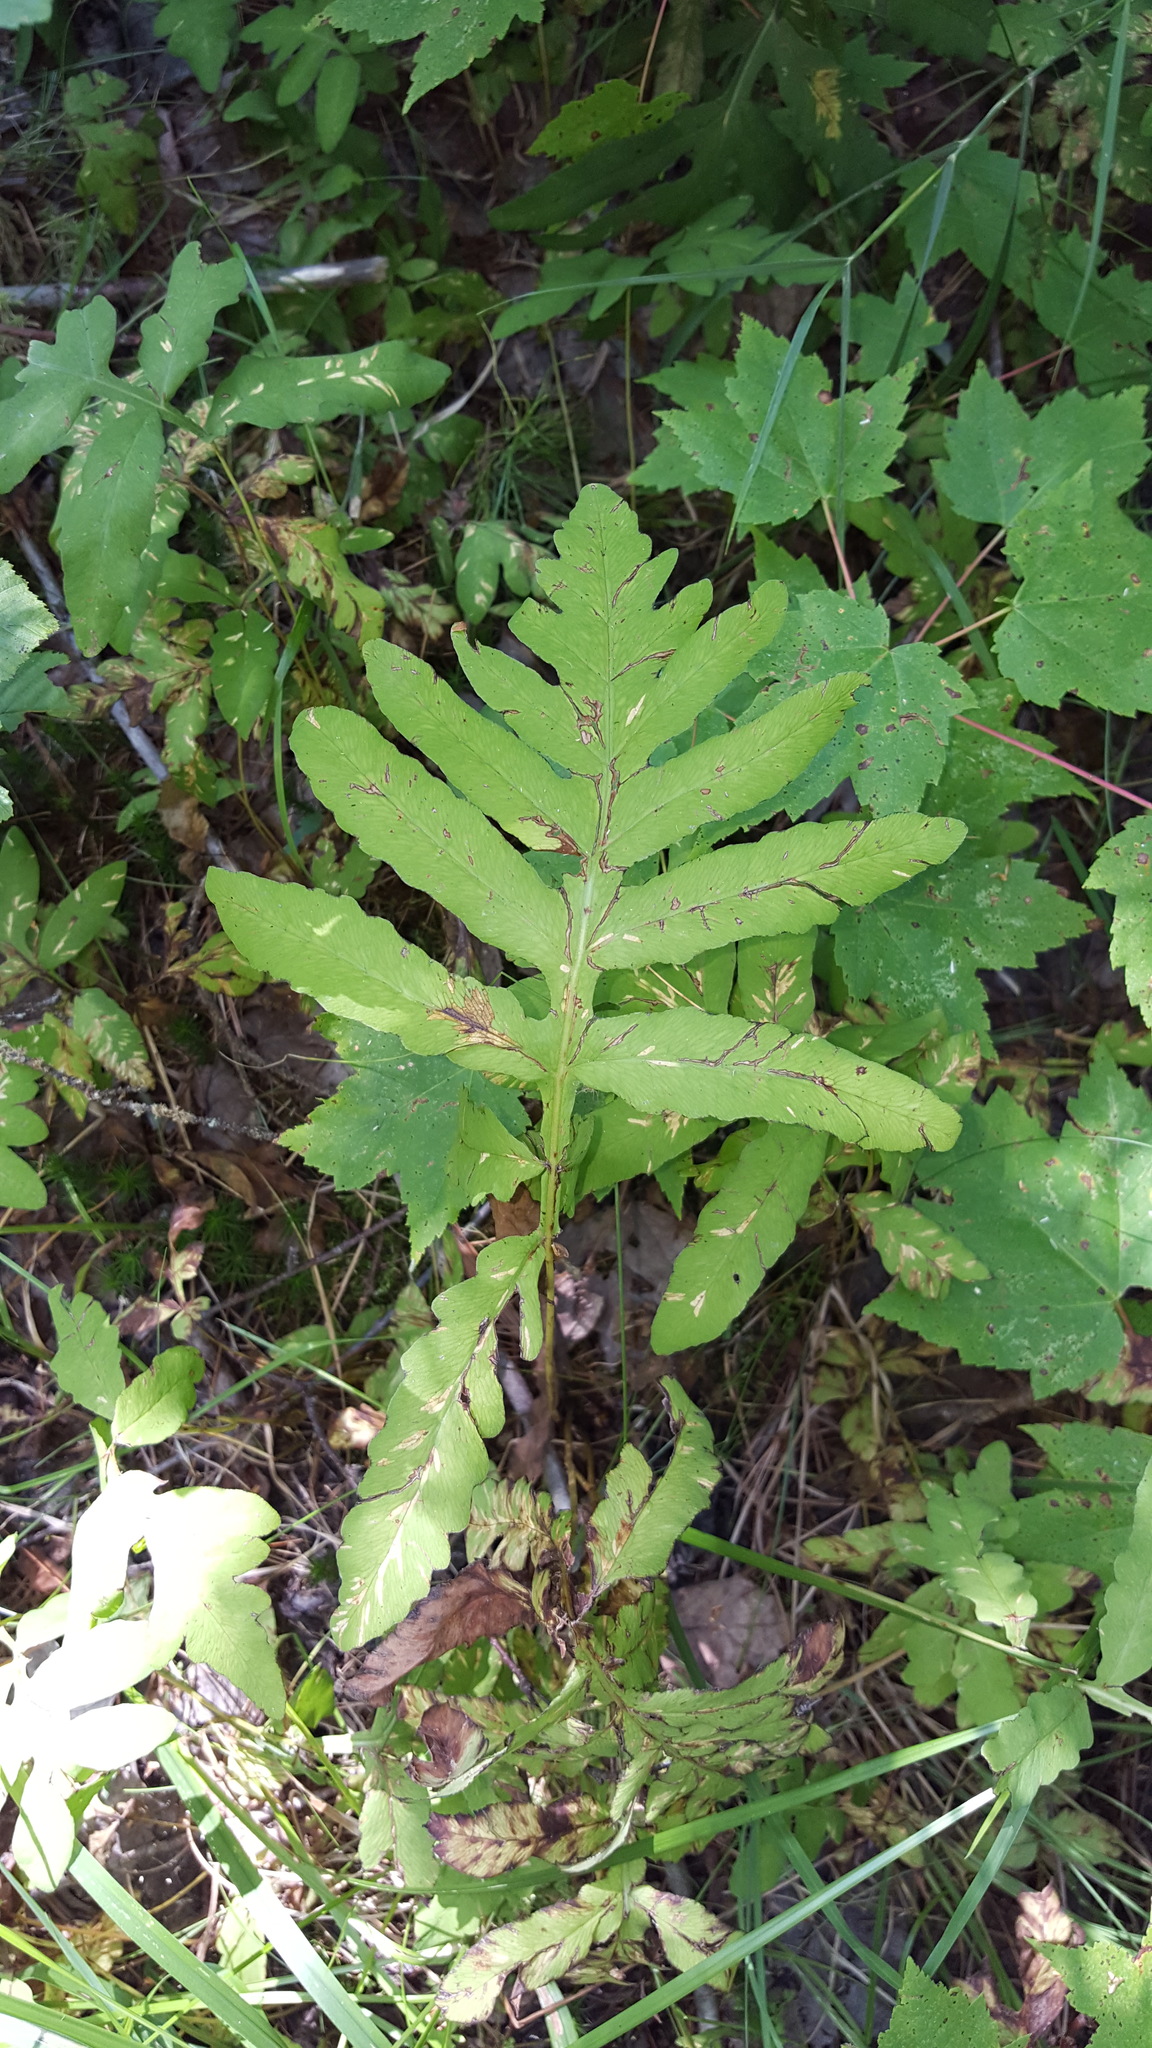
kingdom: Plantae
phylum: Tracheophyta
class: Polypodiopsida
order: Polypodiales
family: Onocleaceae
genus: Onoclea
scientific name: Onoclea sensibilis
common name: Sensitive fern
